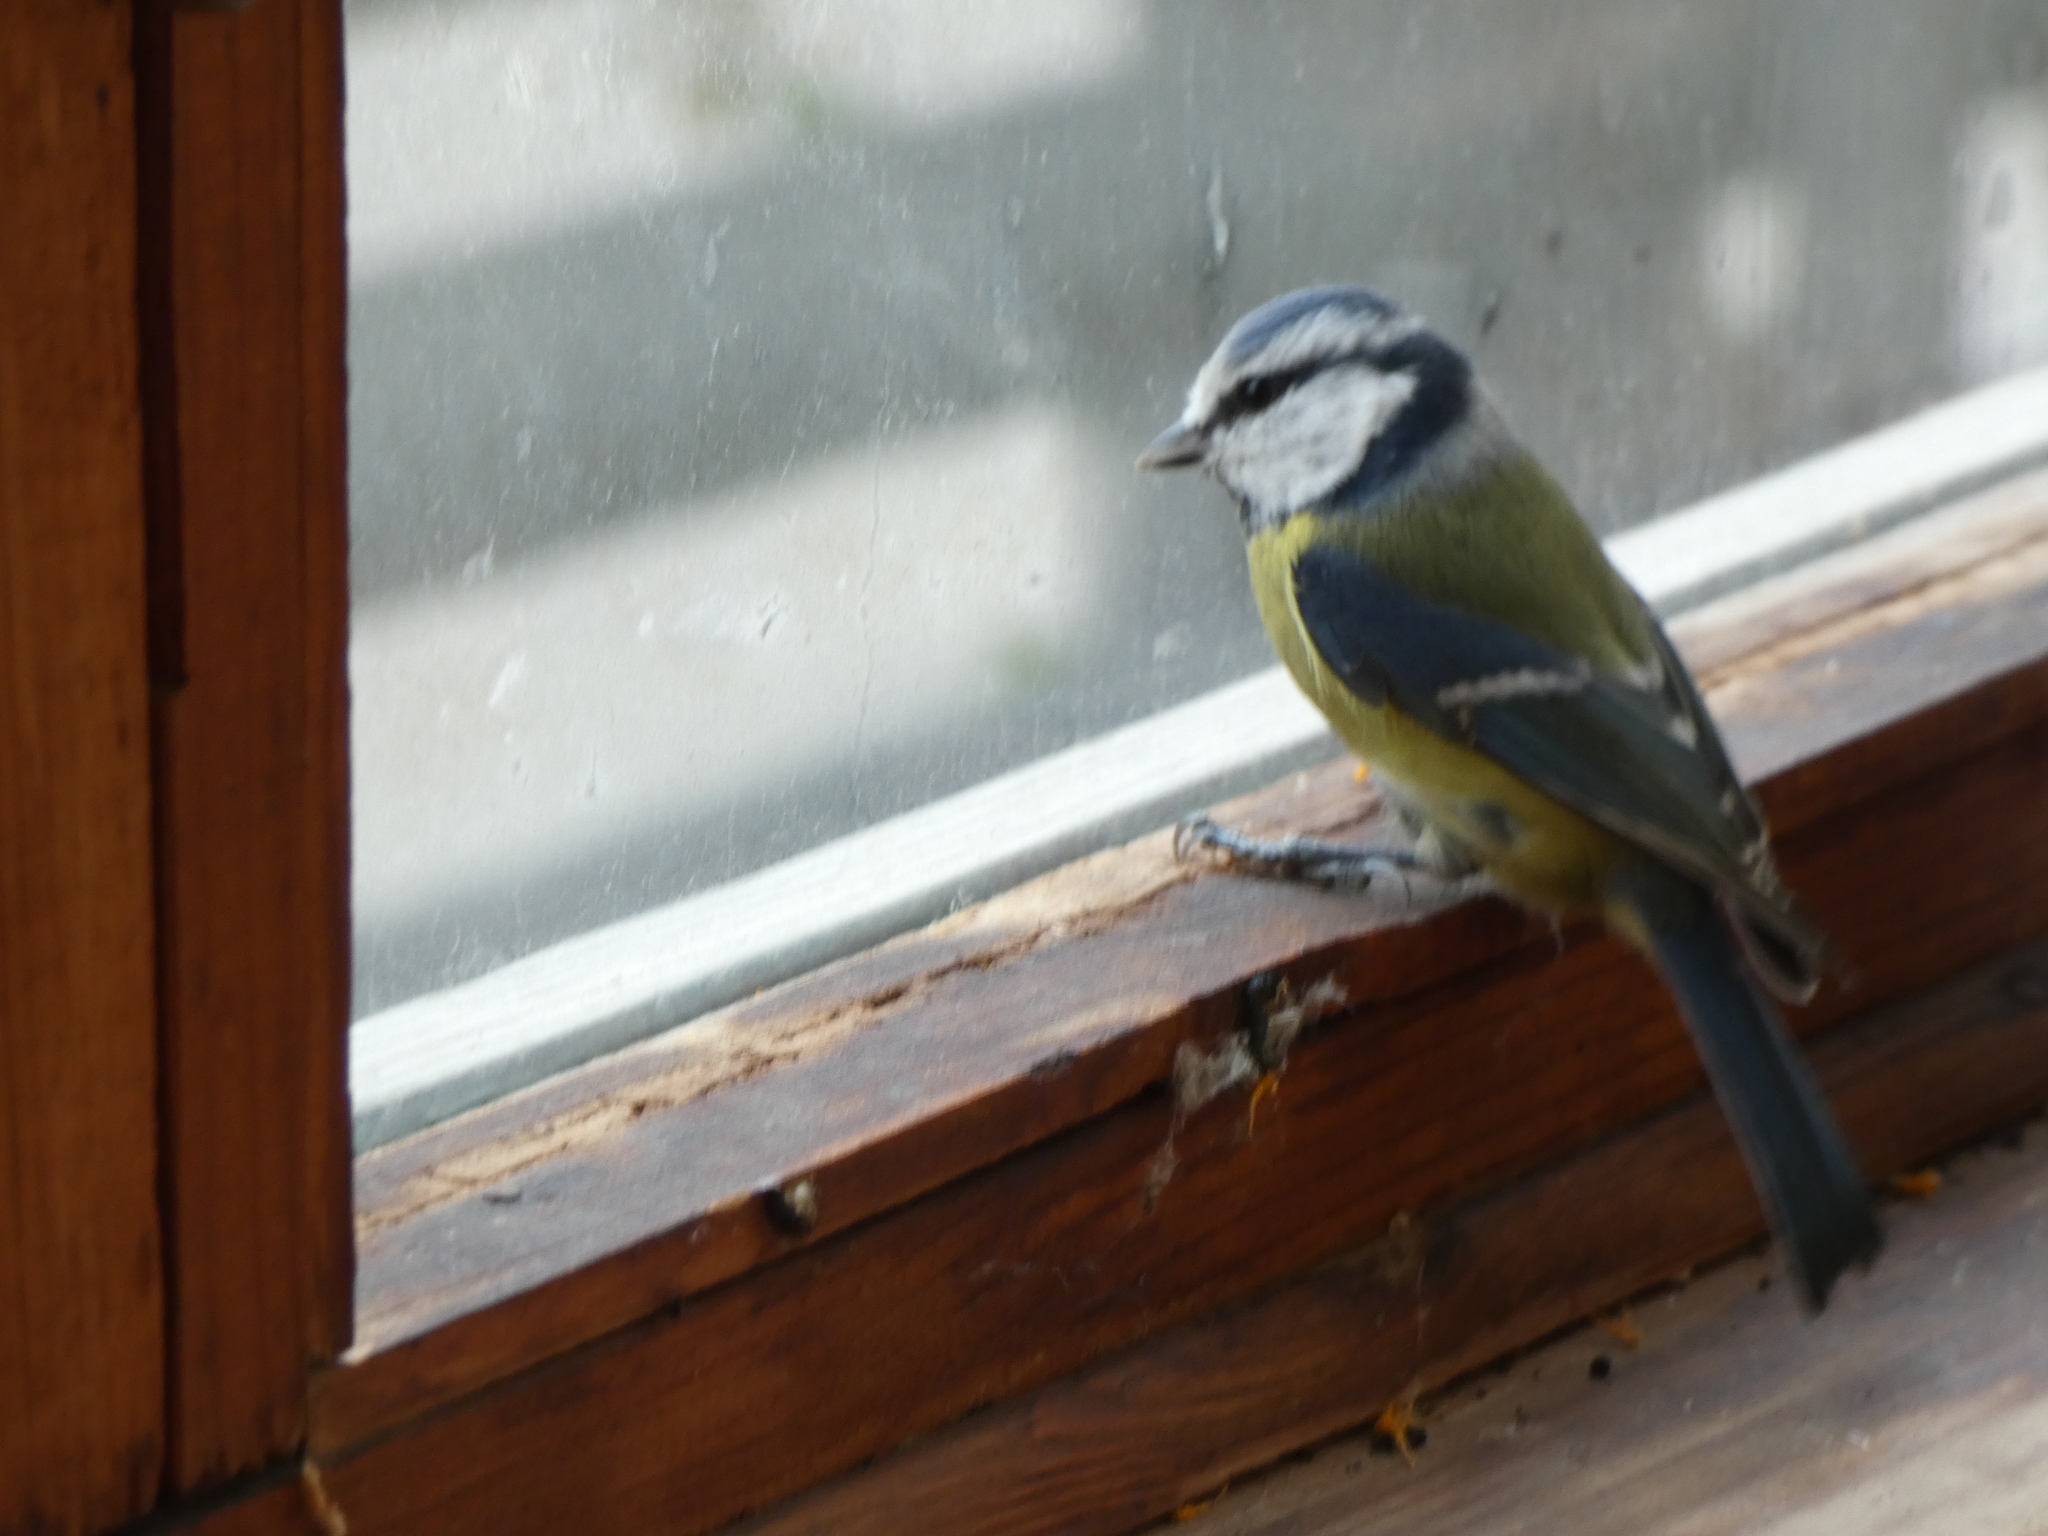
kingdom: Animalia
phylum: Chordata
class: Aves
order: Passeriformes
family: Paridae
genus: Cyanistes
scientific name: Cyanistes caeruleus
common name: Eurasian blue tit
